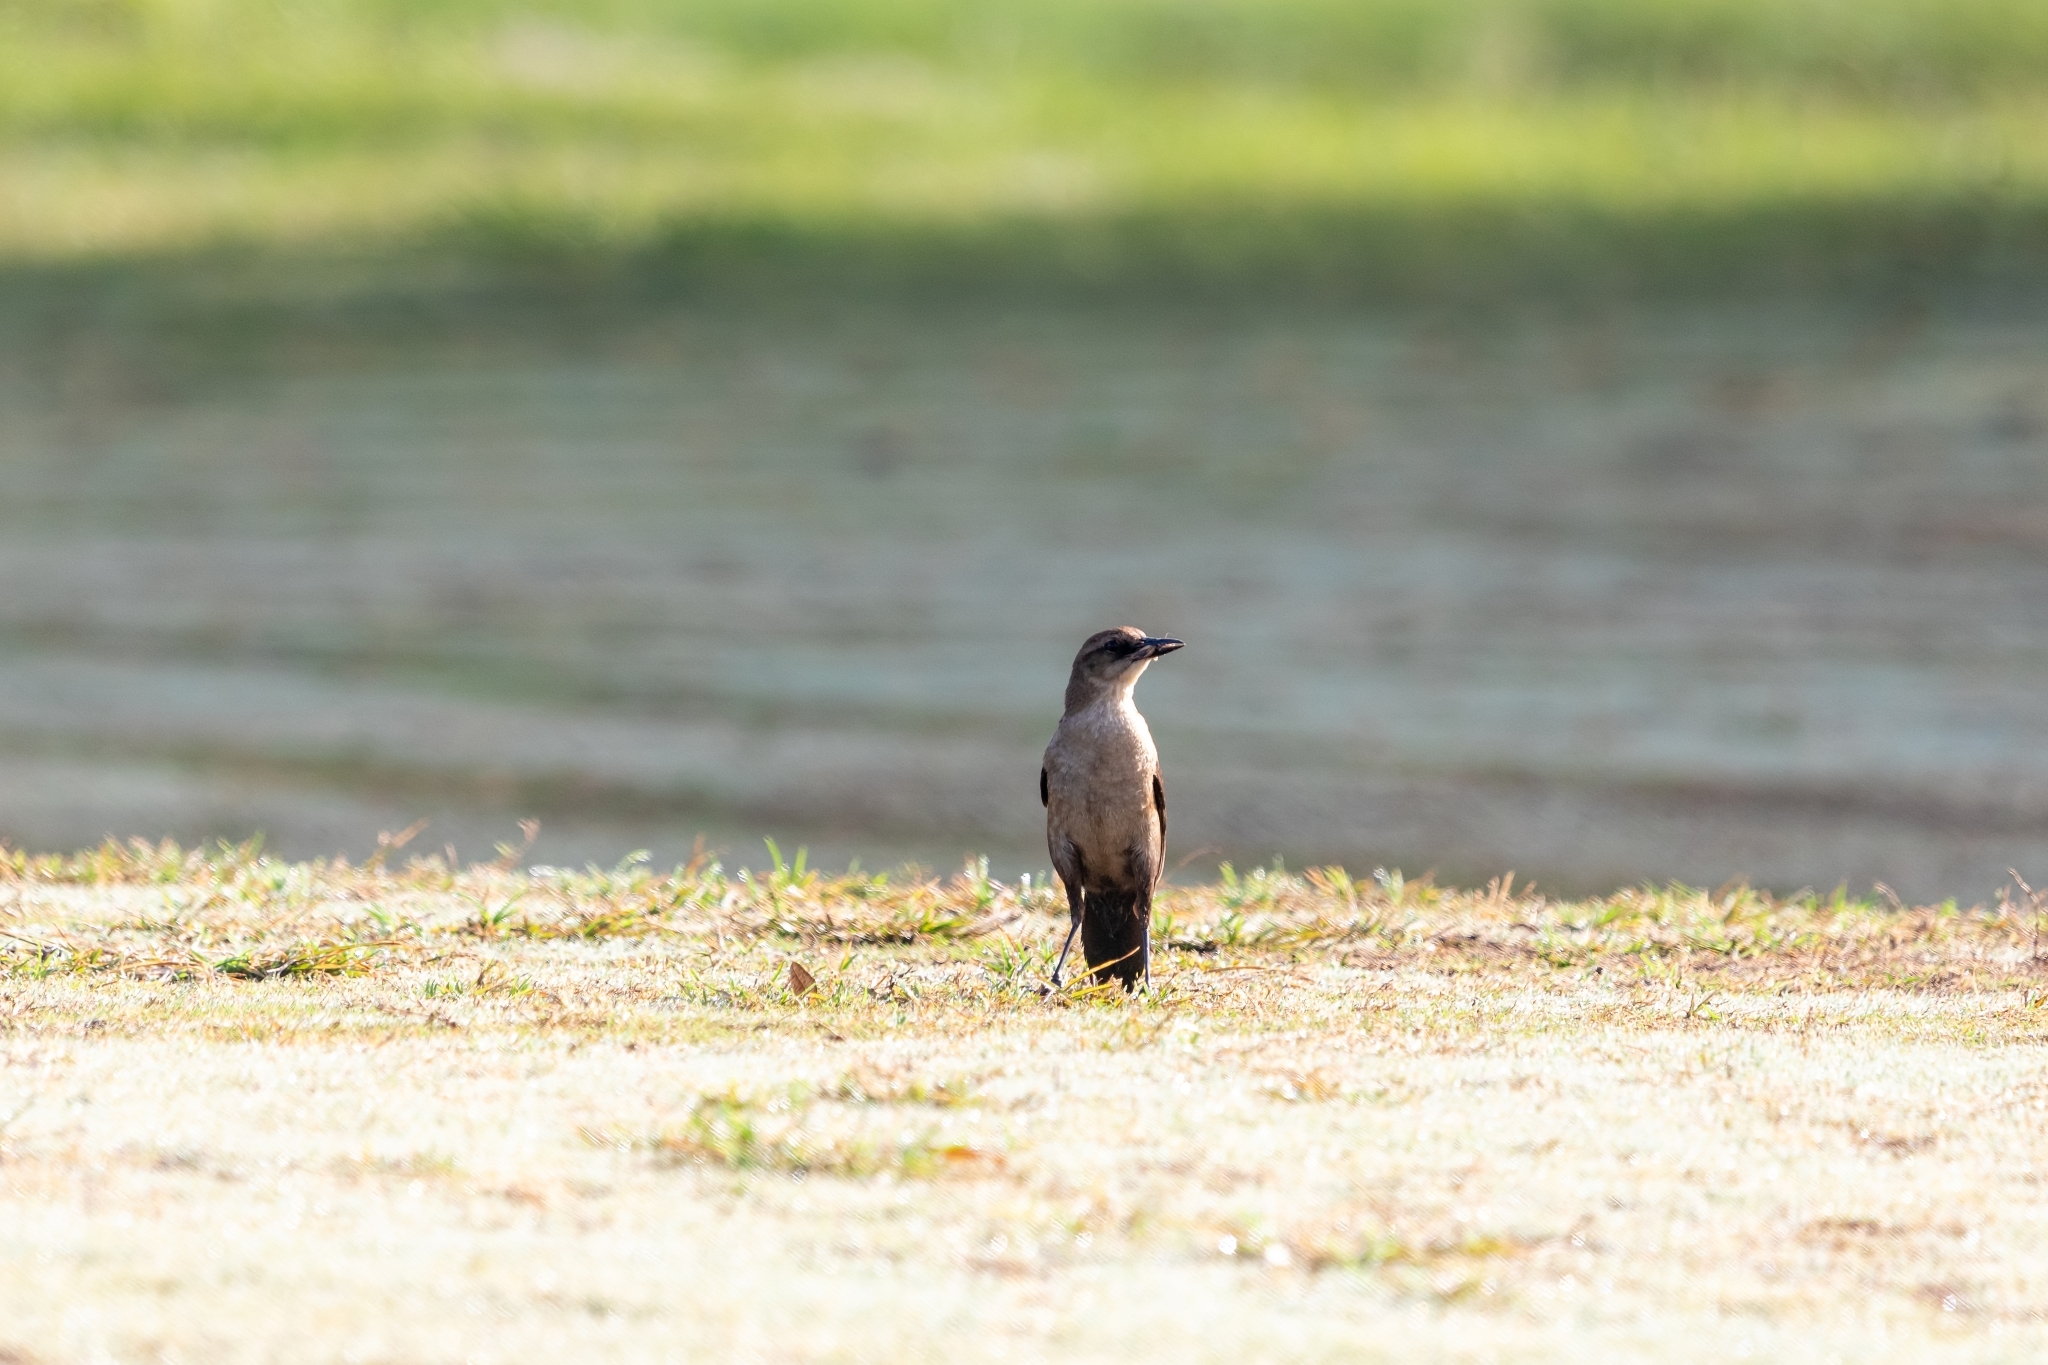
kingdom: Animalia
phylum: Chordata
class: Aves
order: Passeriformes
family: Icteridae
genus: Quiscalus
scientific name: Quiscalus major
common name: Boat-tailed grackle
